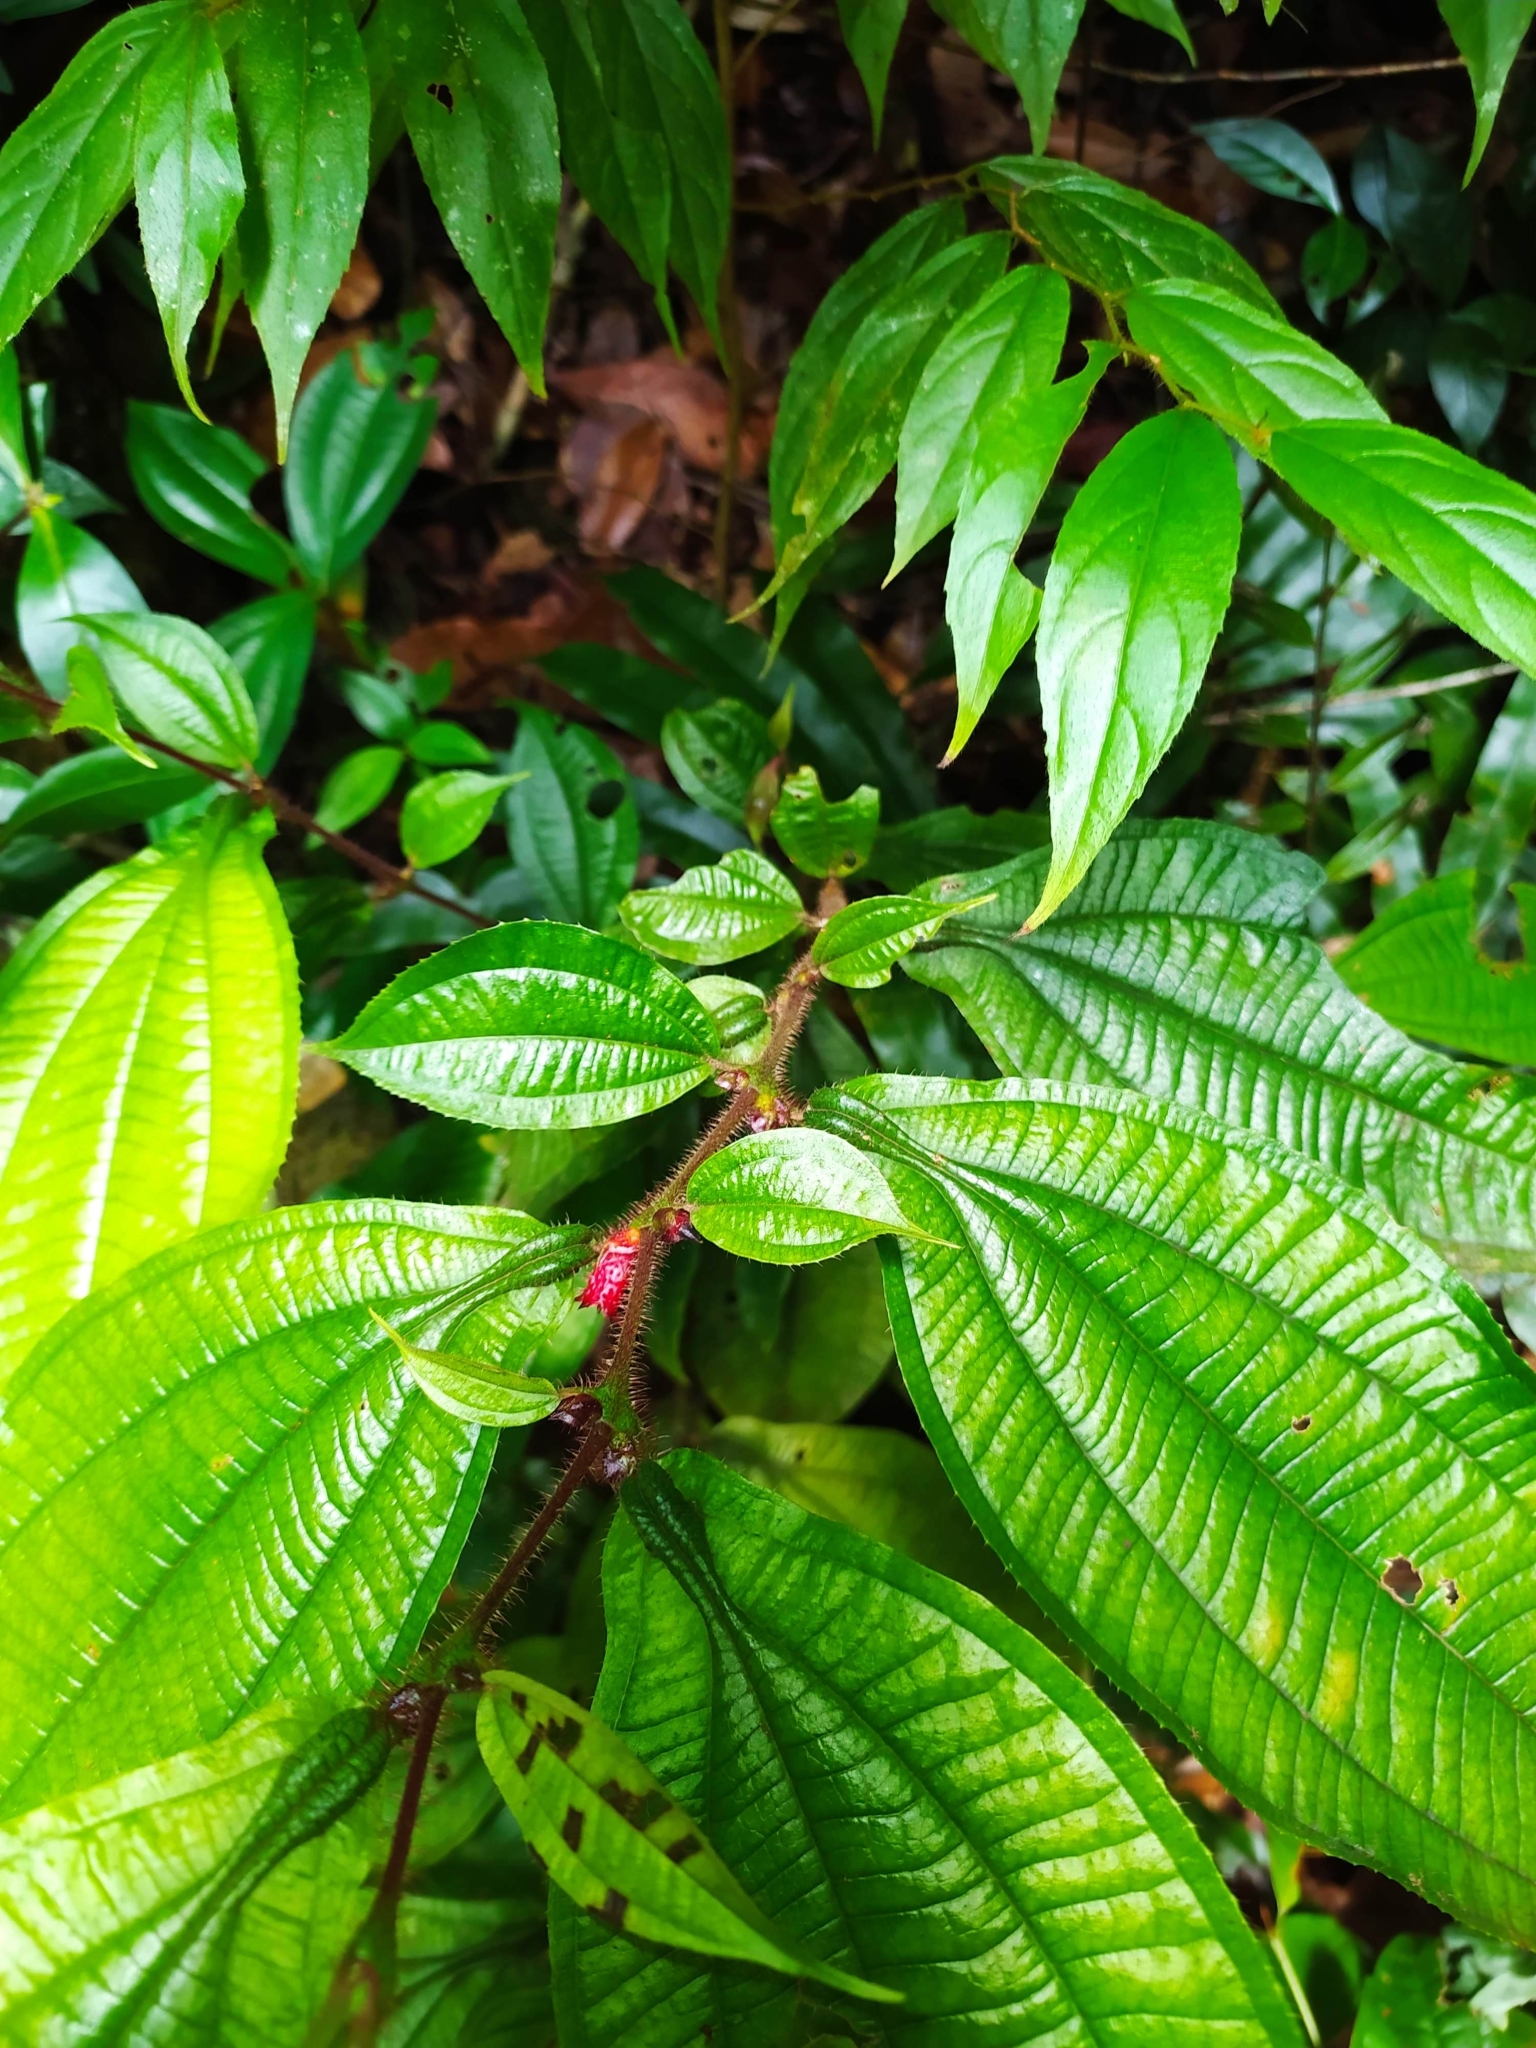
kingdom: Plantae
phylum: Tracheophyta
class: Magnoliopsida
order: Myrtales
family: Melastomataceae
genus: Miconia
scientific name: Miconia mayeta
